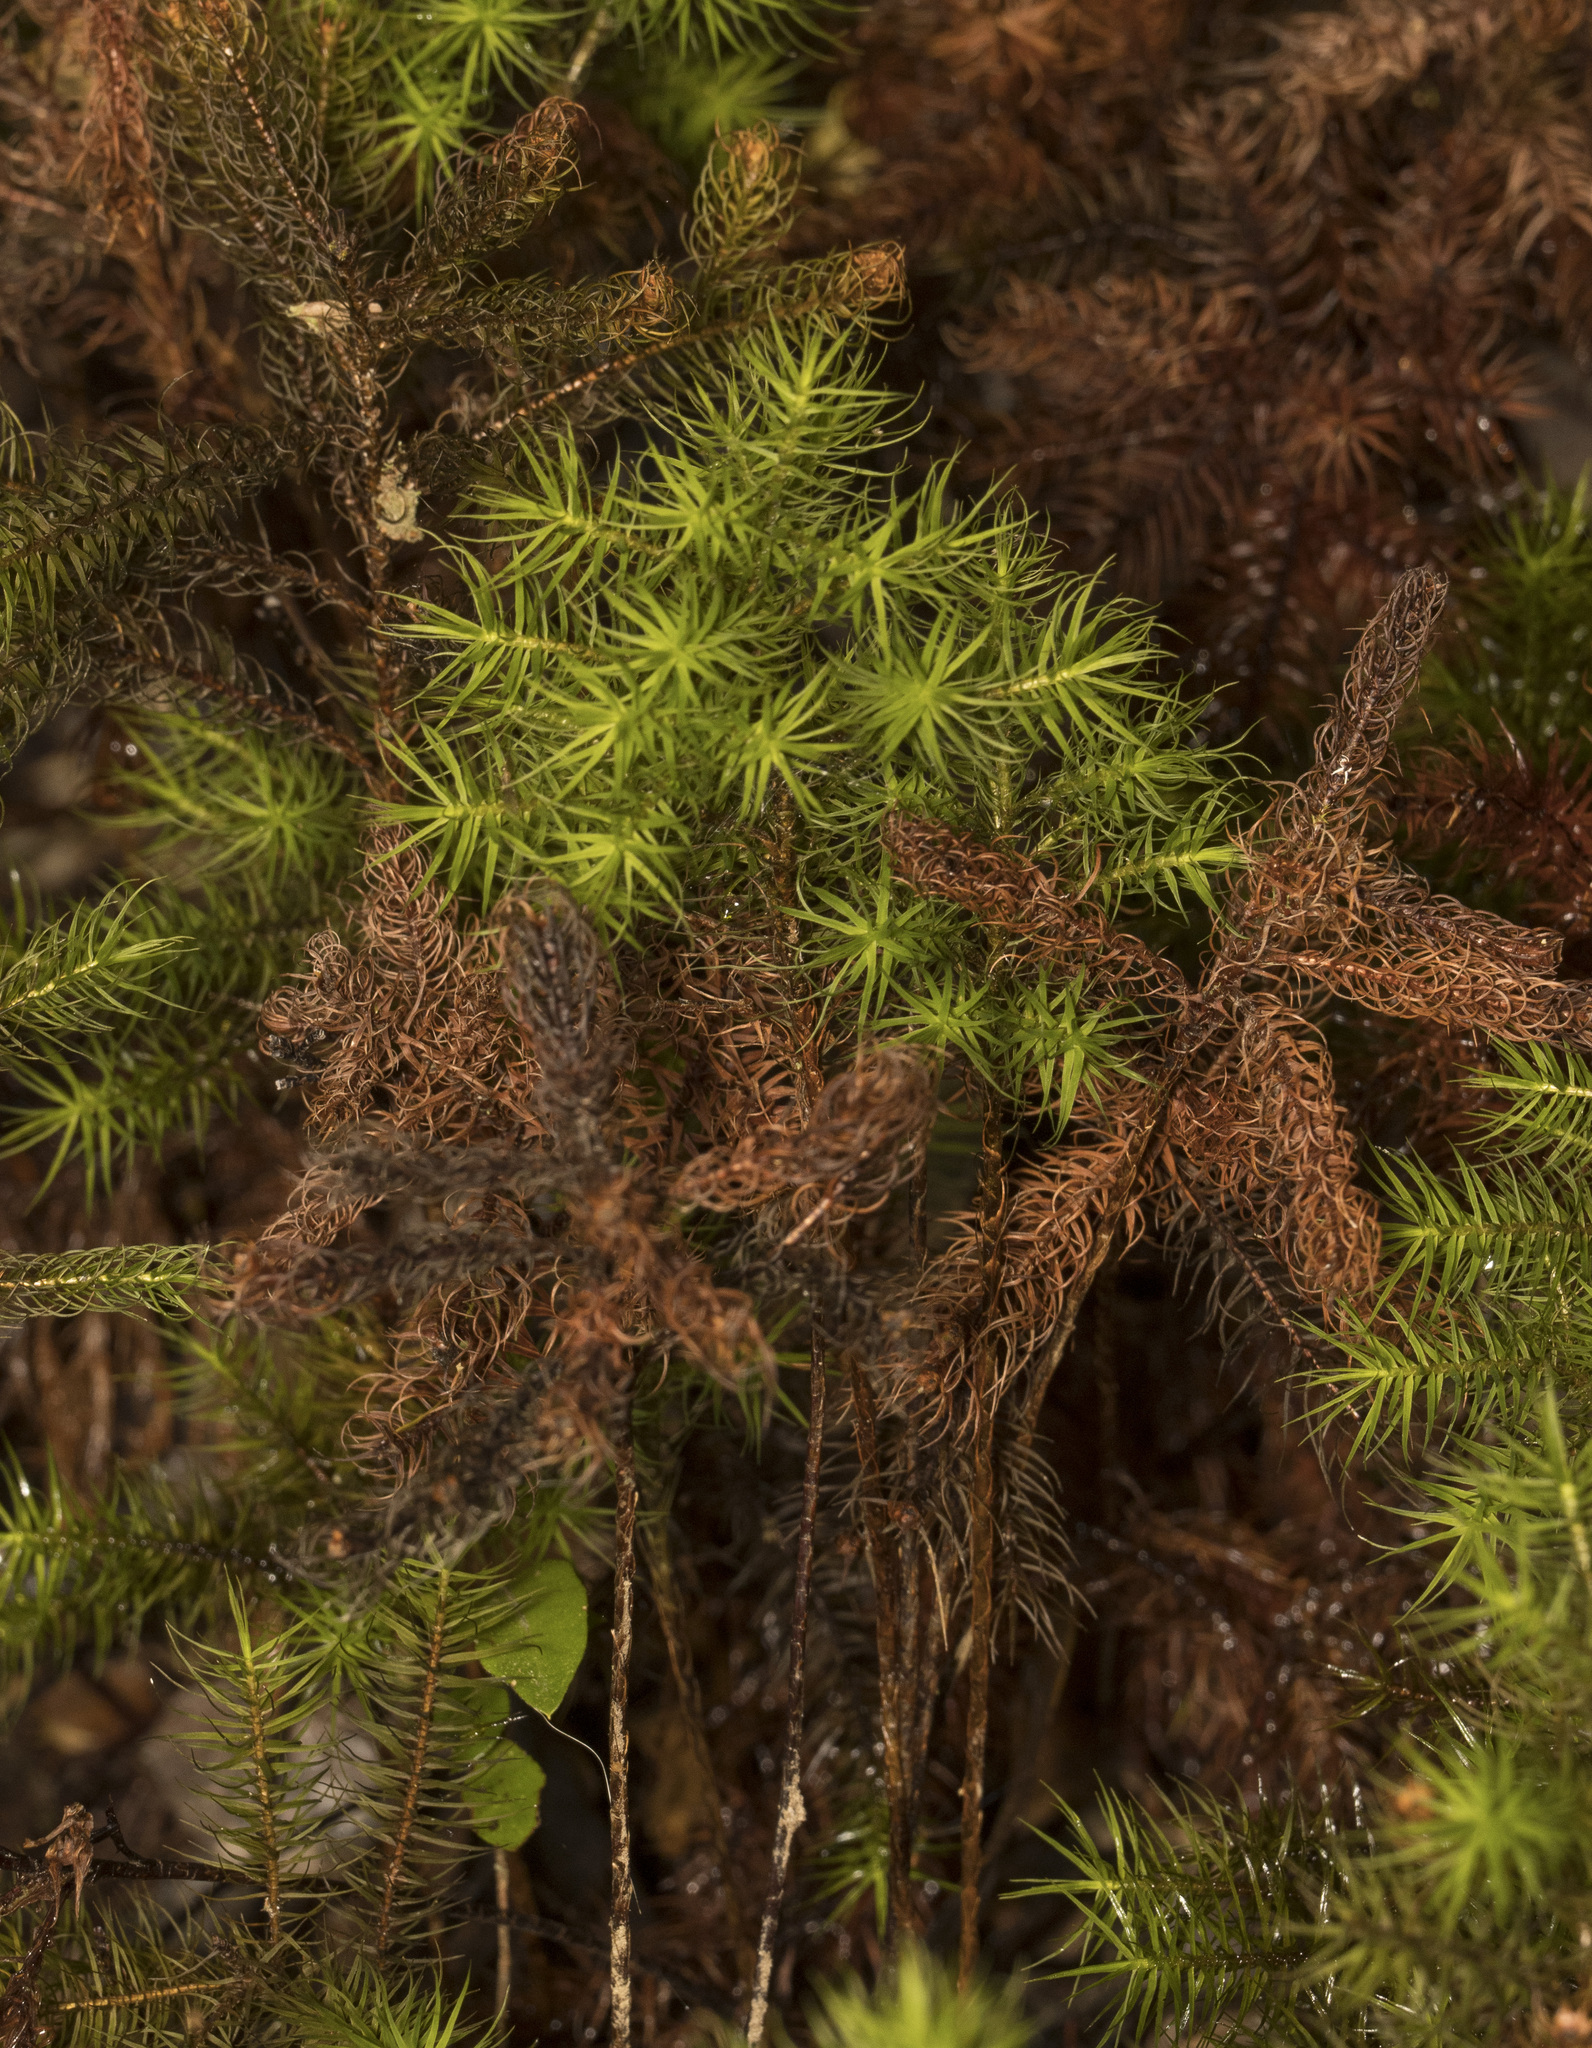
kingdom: Plantae
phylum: Bryophyta
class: Polytrichopsida
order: Polytrichales
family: Polytrichaceae
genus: Dendroligotrichum
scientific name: Dendroligotrichum dendroides
